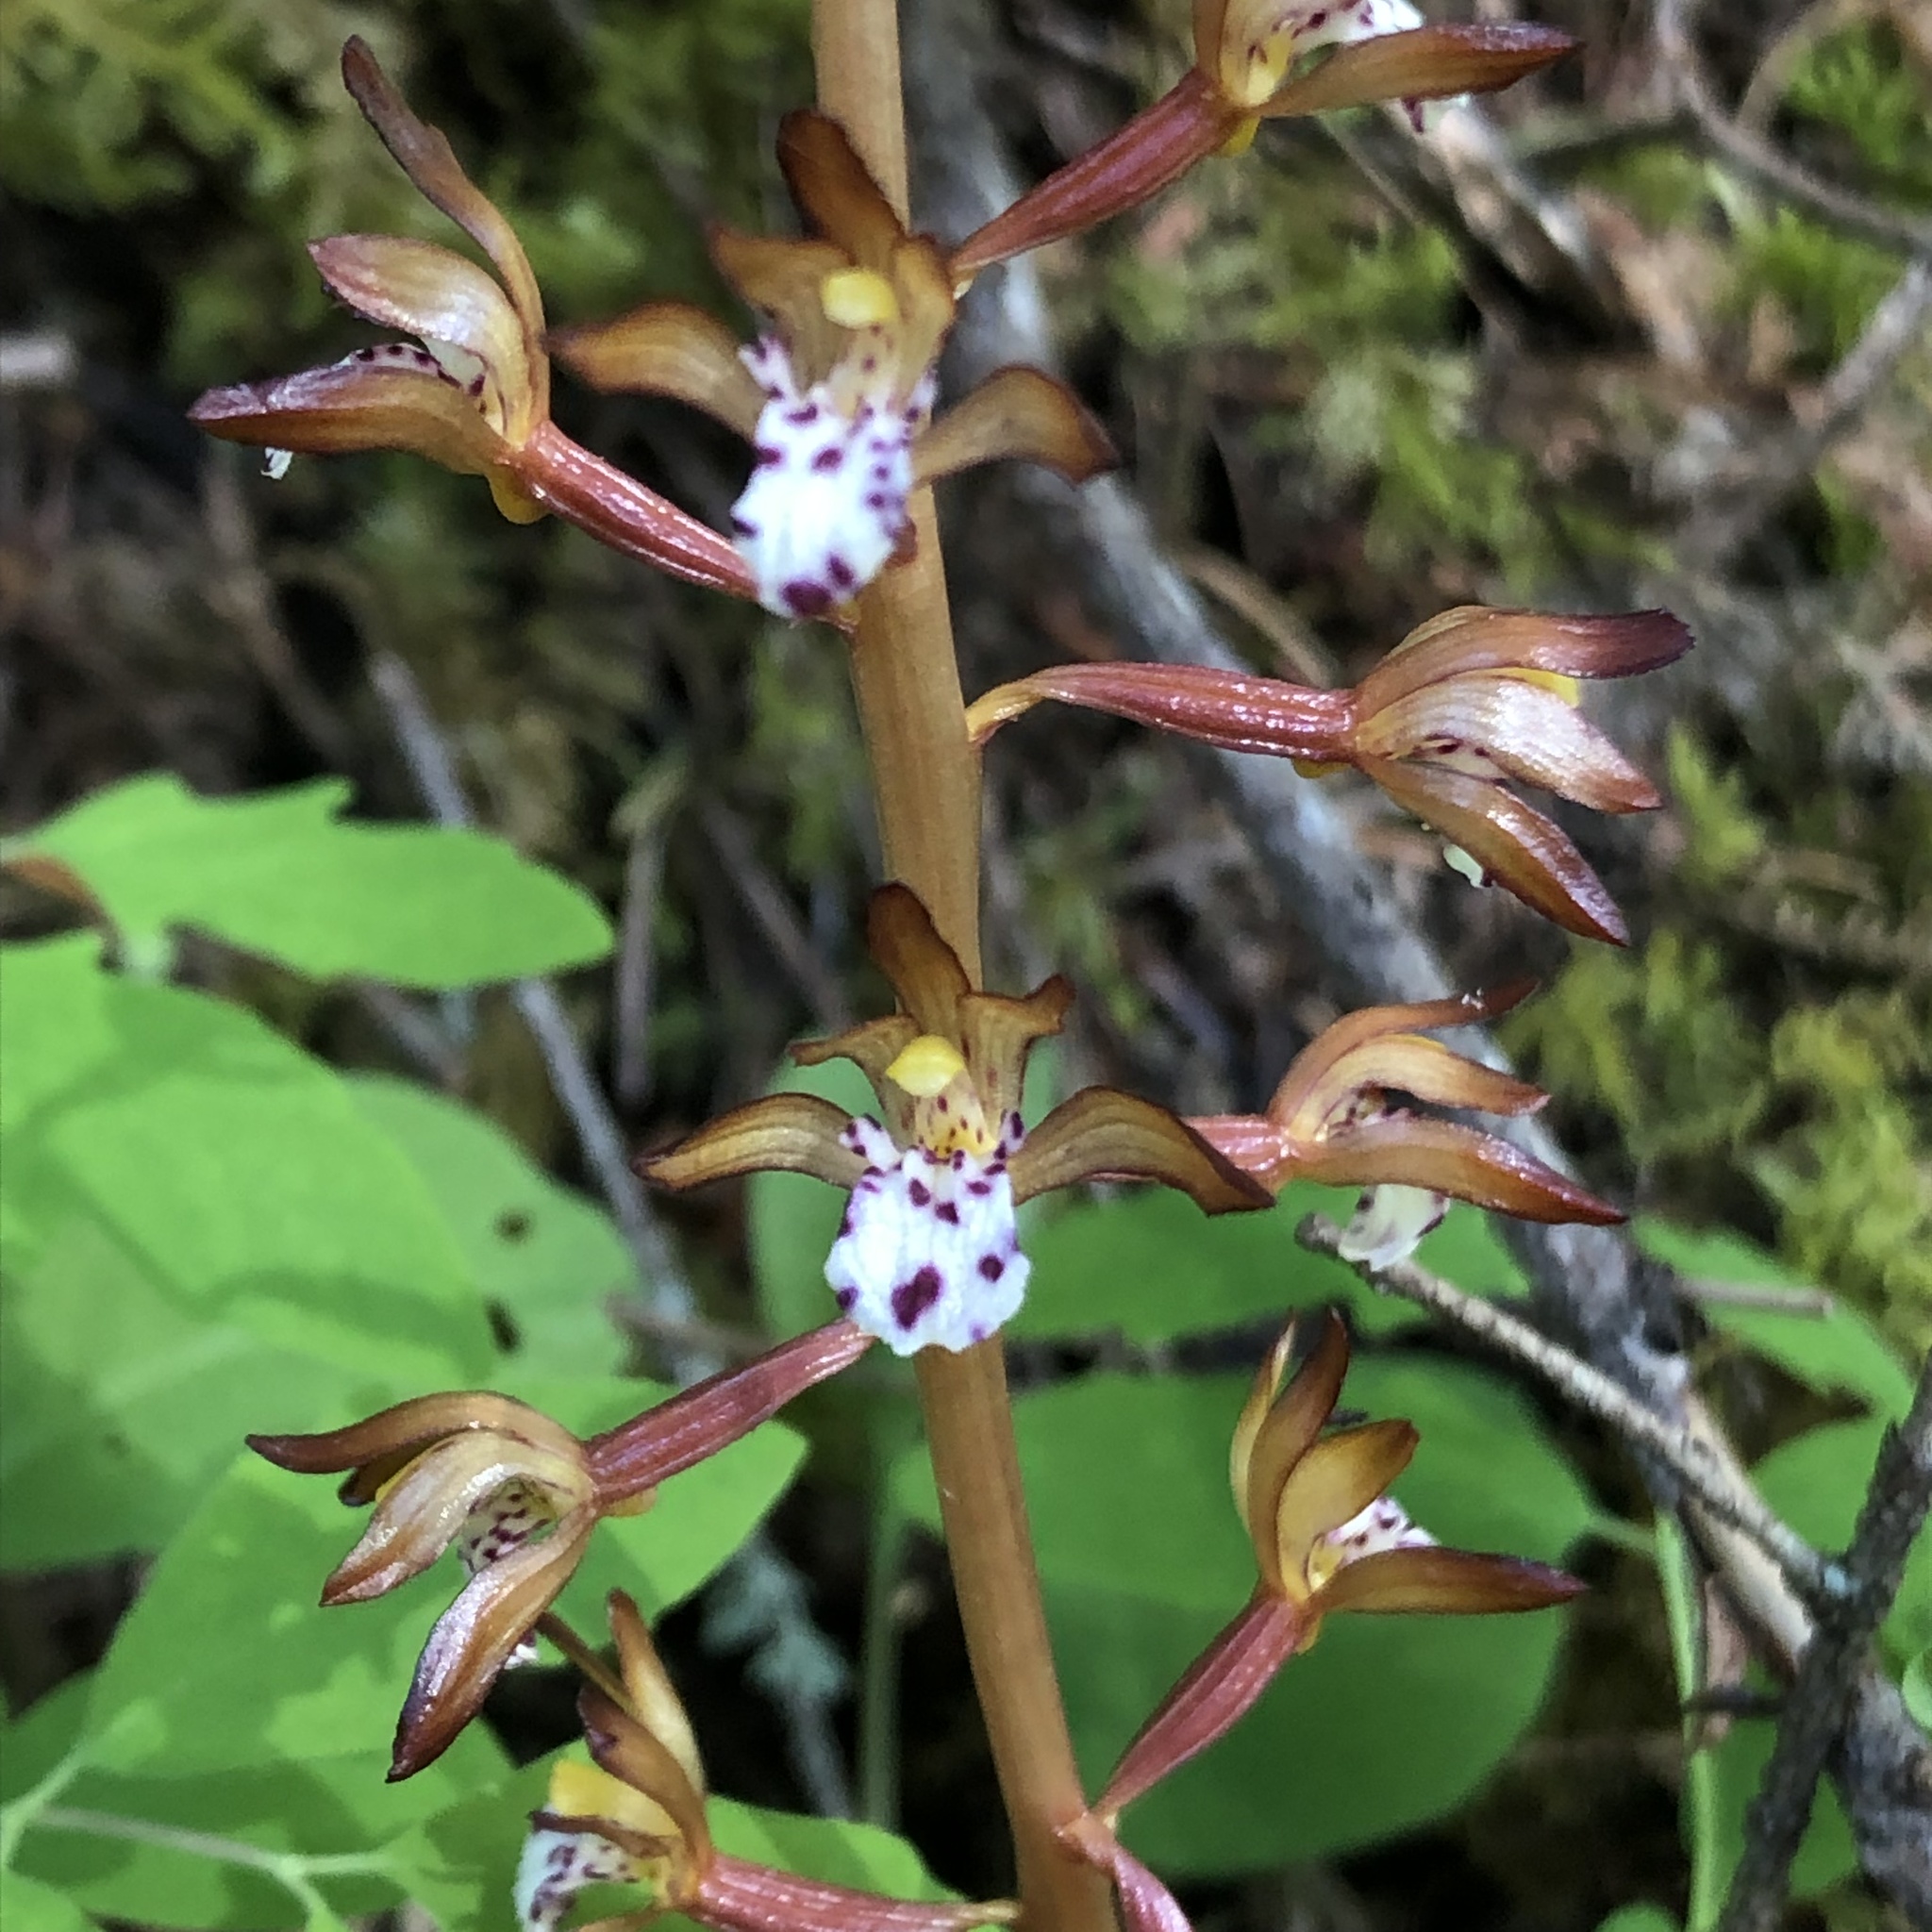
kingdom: Plantae
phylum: Tracheophyta
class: Liliopsida
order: Asparagales
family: Orchidaceae
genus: Corallorhiza
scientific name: Corallorhiza maculata
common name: Spotted coralroot
